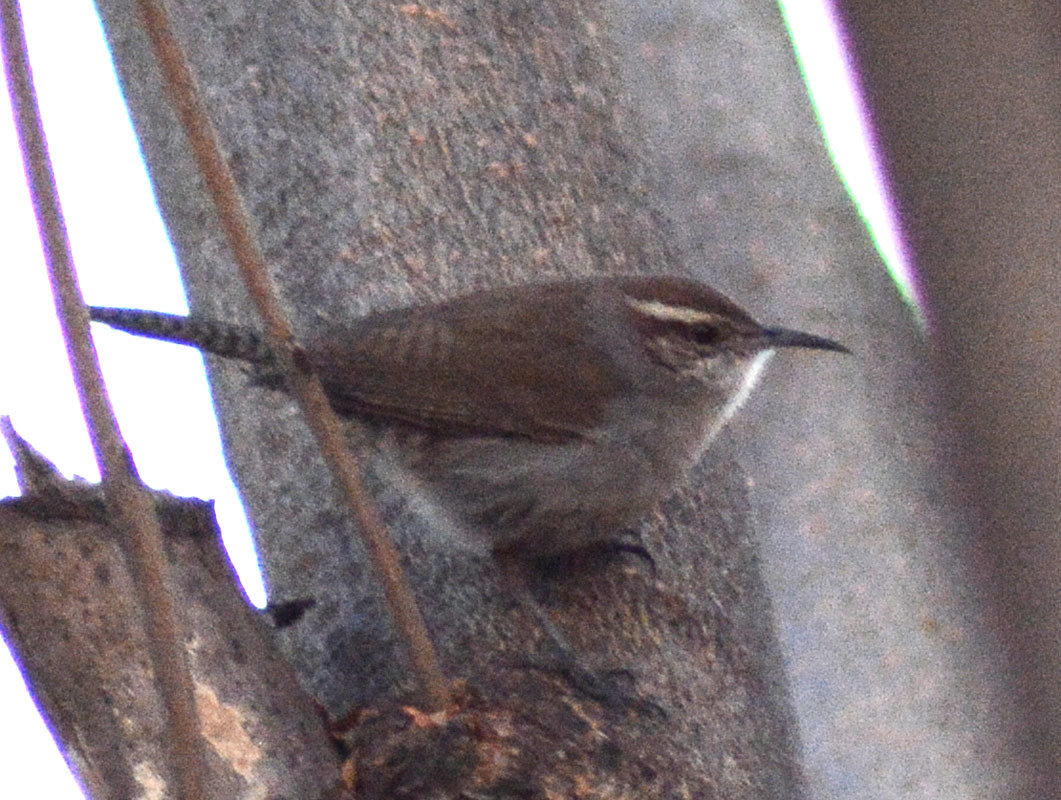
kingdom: Animalia
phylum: Chordata
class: Aves
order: Passeriformes
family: Troglodytidae
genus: Thryomanes
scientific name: Thryomanes bewickii
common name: Bewick's wren
